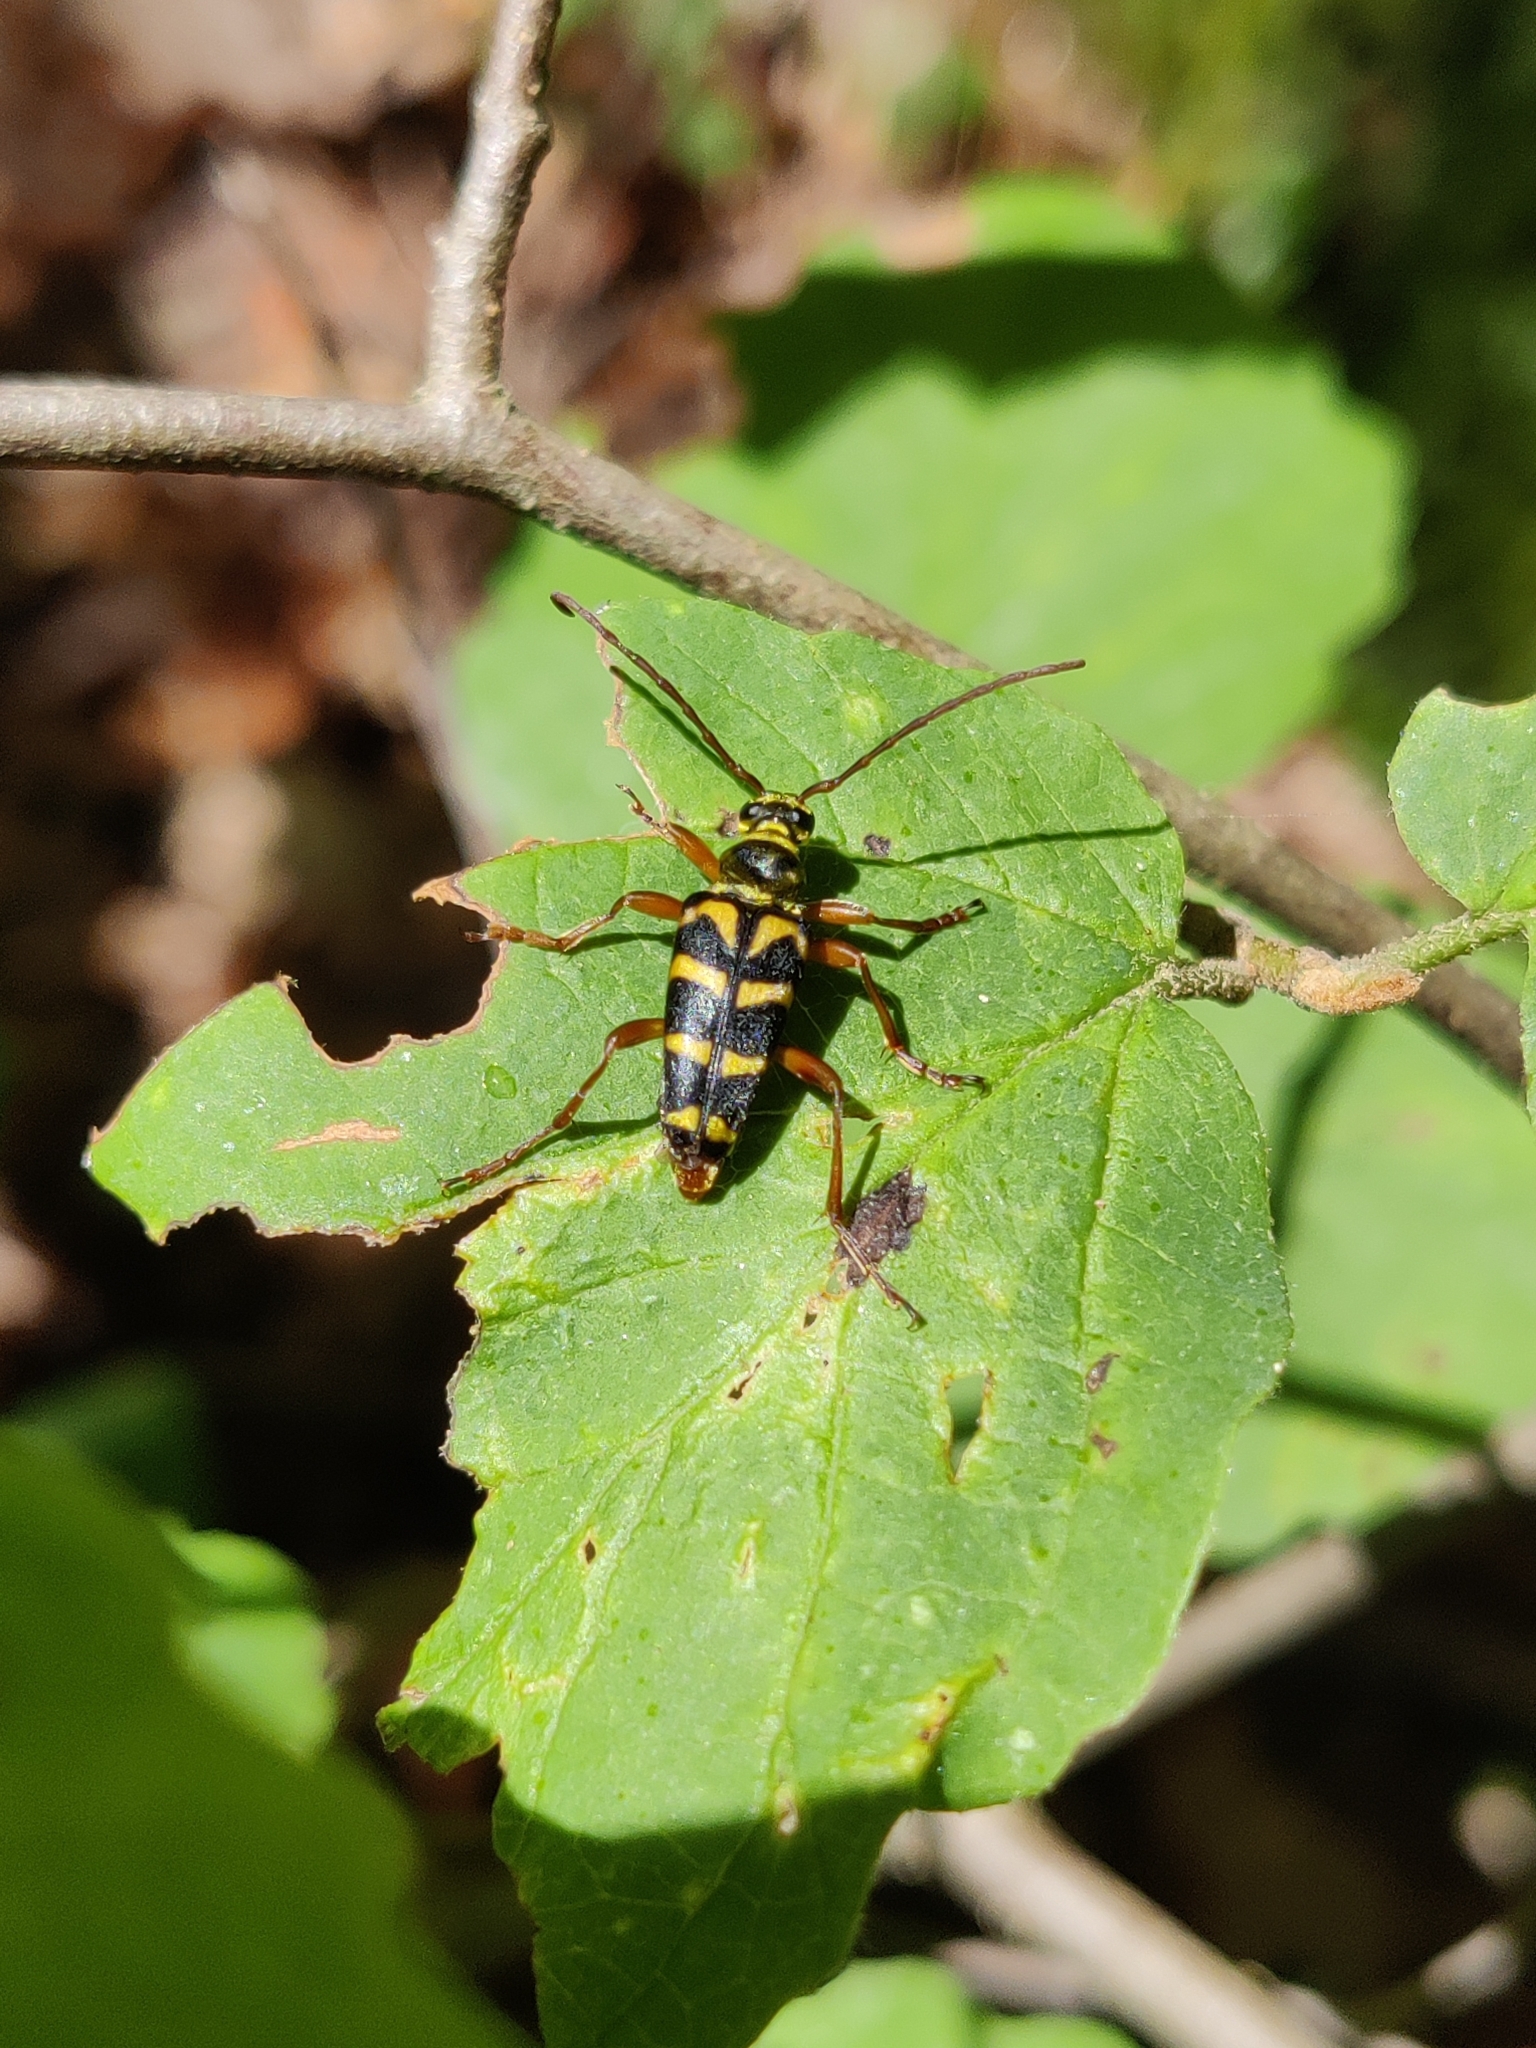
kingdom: Animalia
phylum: Arthropoda
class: Insecta
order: Coleoptera
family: Cerambycidae
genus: Strophiona
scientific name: Strophiona nitens
